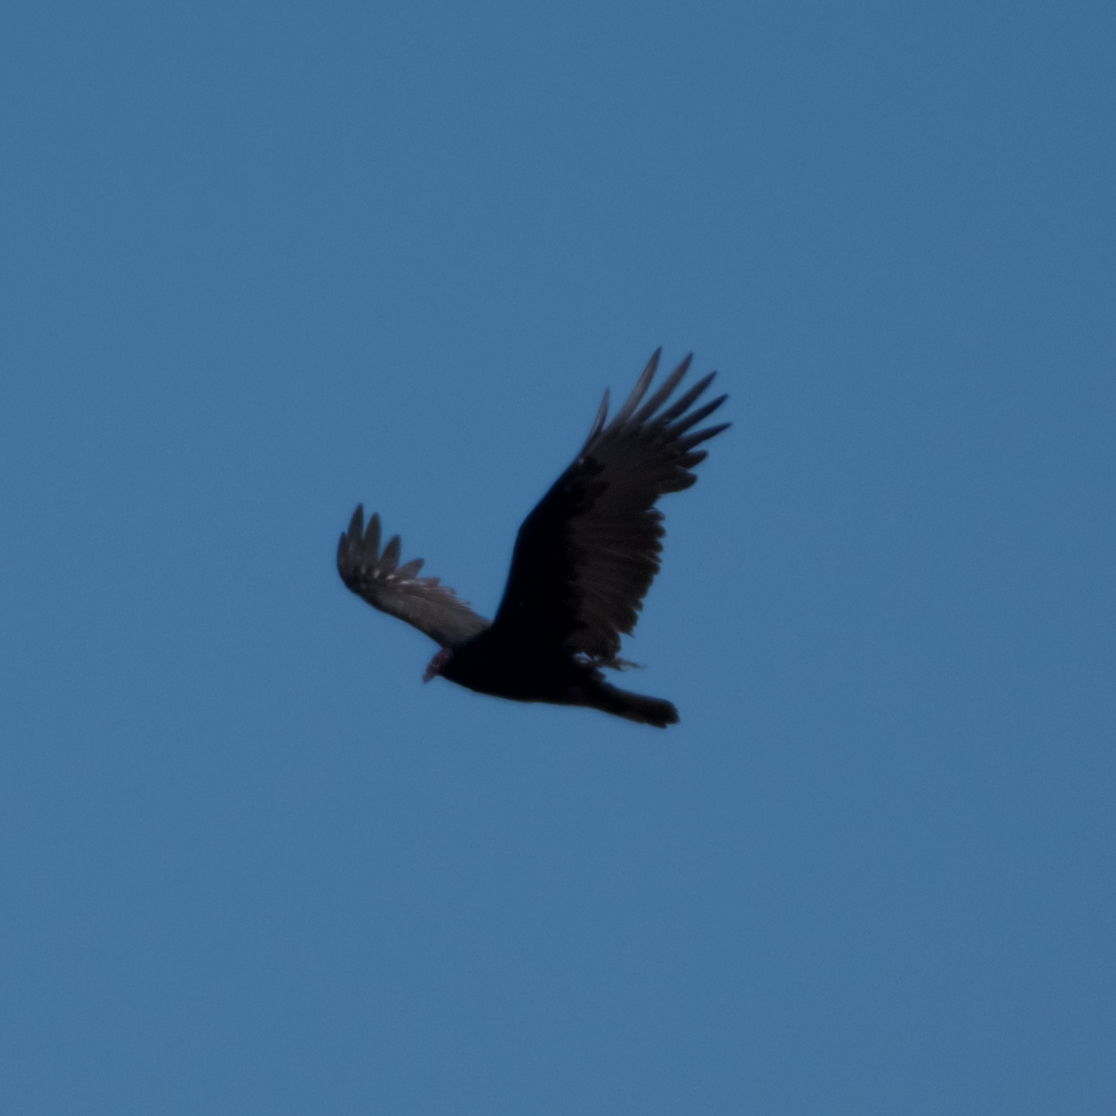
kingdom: Animalia
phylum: Chordata
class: Aves
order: Accipitriformes
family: Cathartidae
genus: Cathartes
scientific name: Cathartes aura
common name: Turkey vulture
